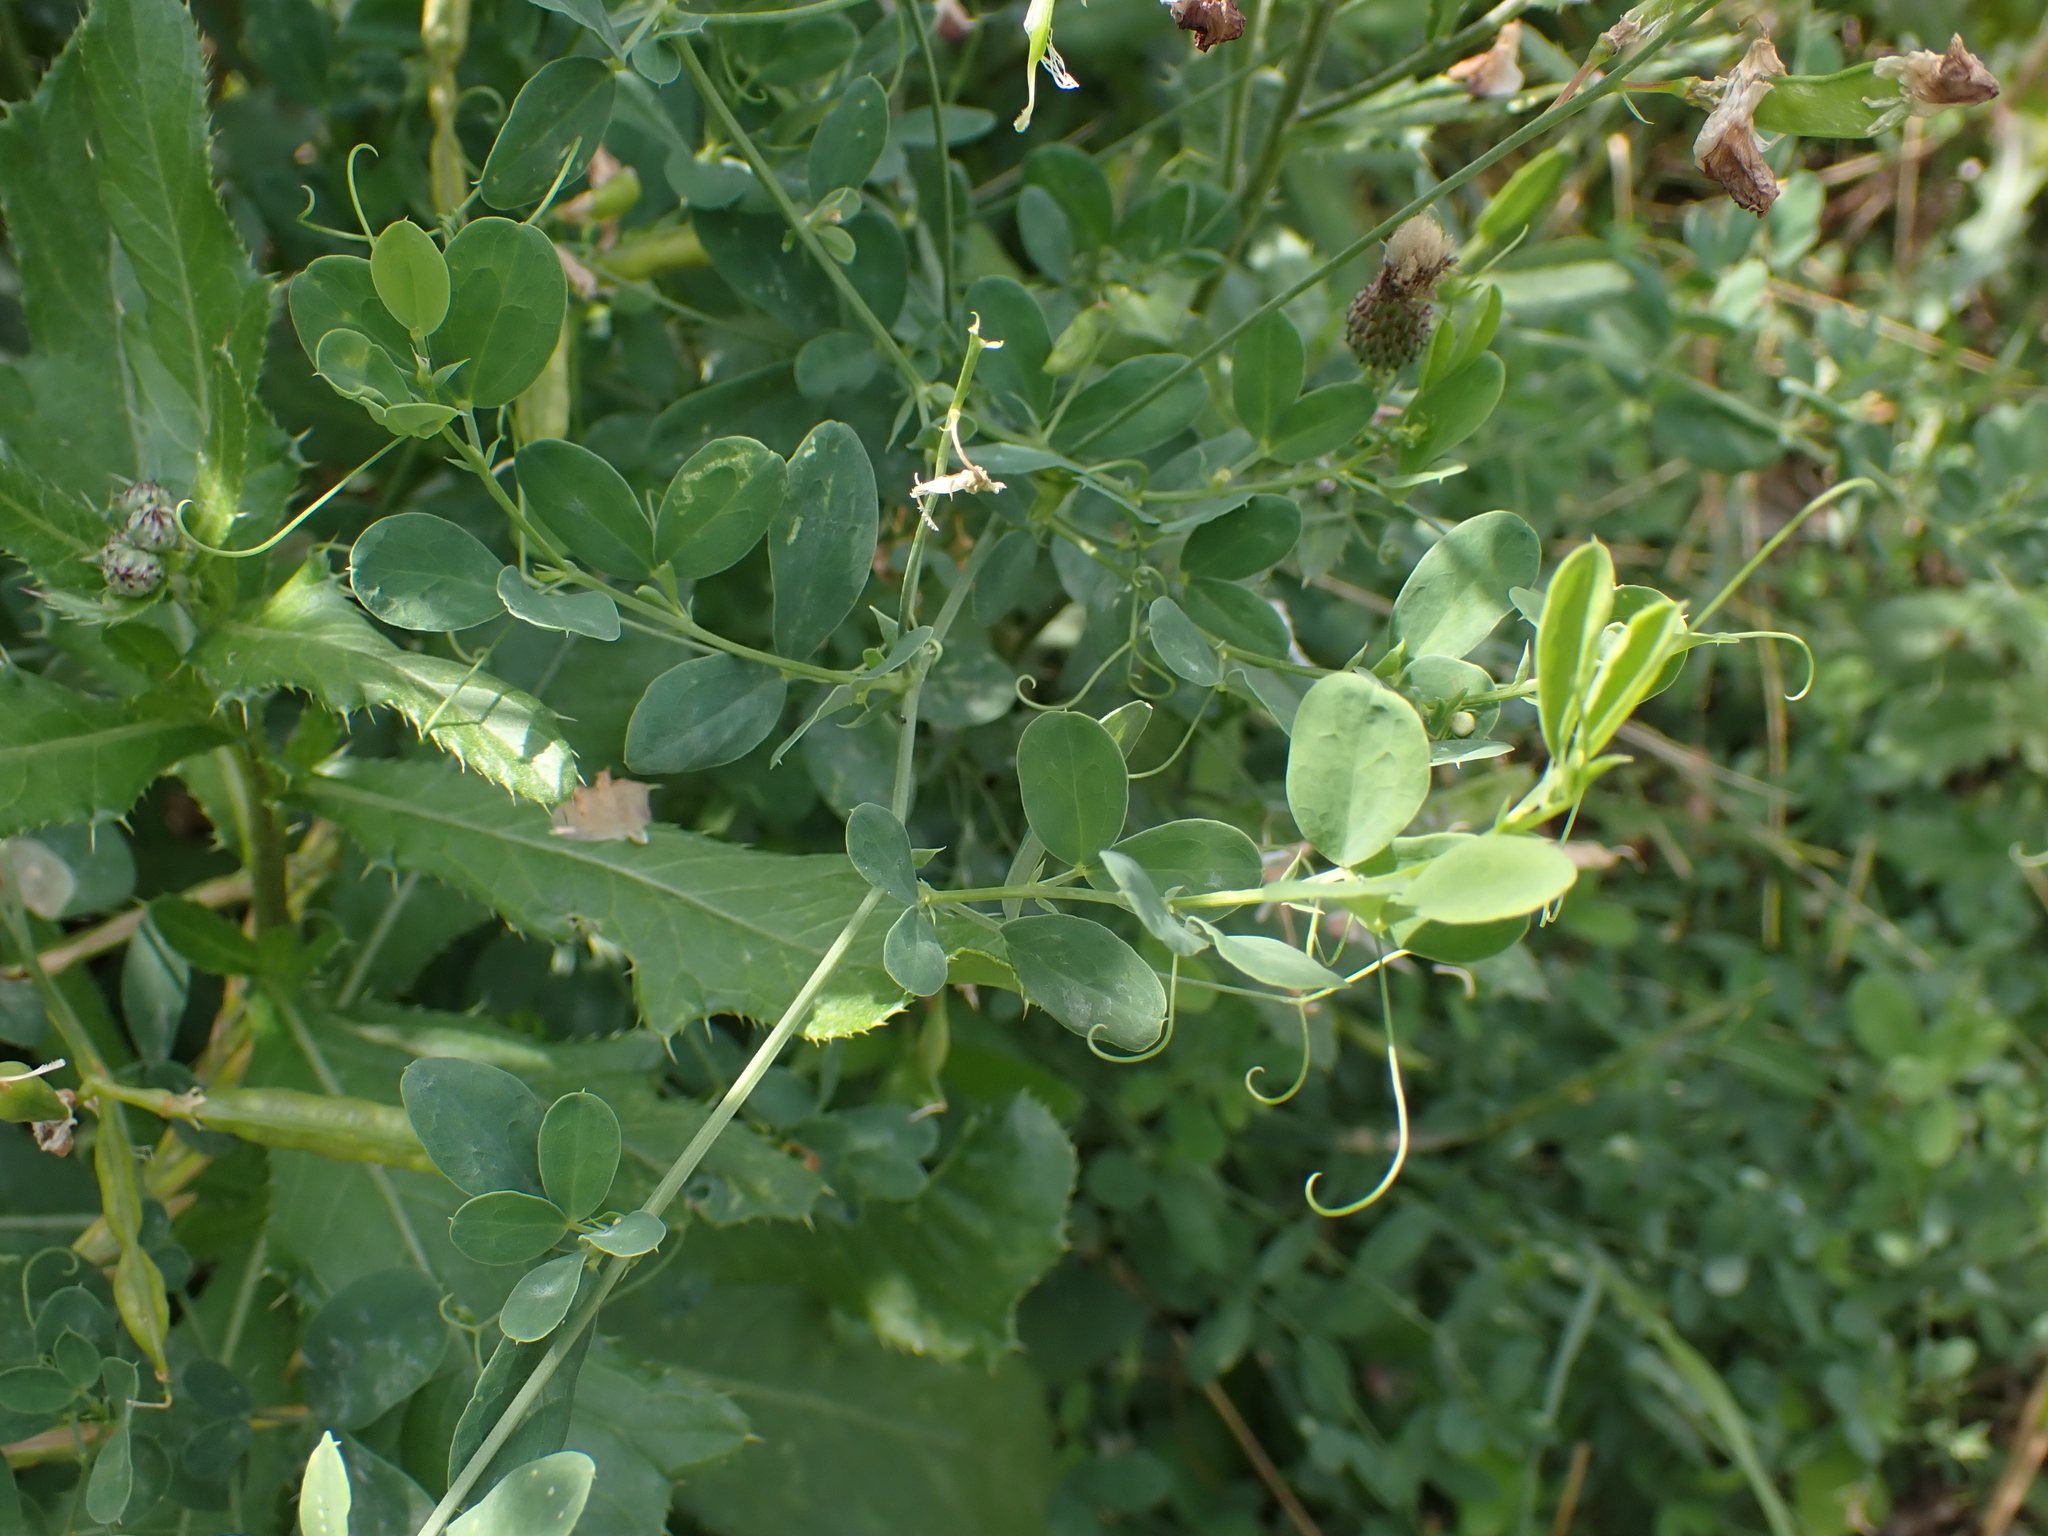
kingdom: Plantae
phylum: Tracheophyta
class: Magnoliopsida
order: Fabales
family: Fabaceae
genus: Lathyrus
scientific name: Lathyrus tuberosus
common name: Tuberous pea
